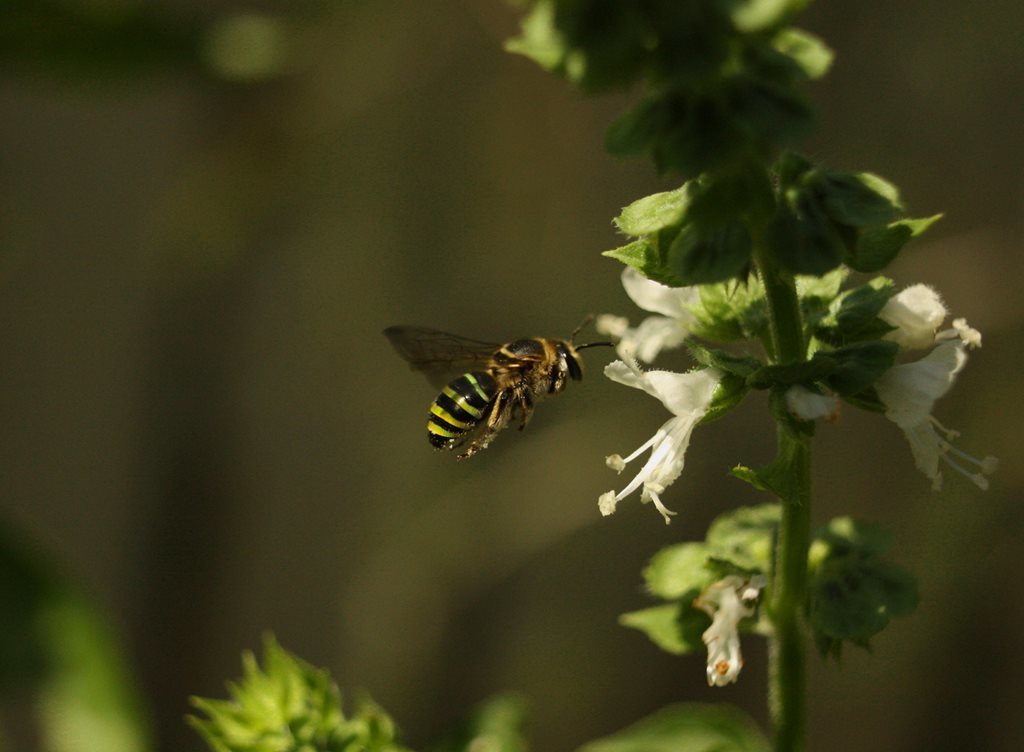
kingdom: Animalia
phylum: Arthropoda
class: Insecta
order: Hymenoptera
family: Halictidae
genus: Nomia
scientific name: Nomia rubroviridis
